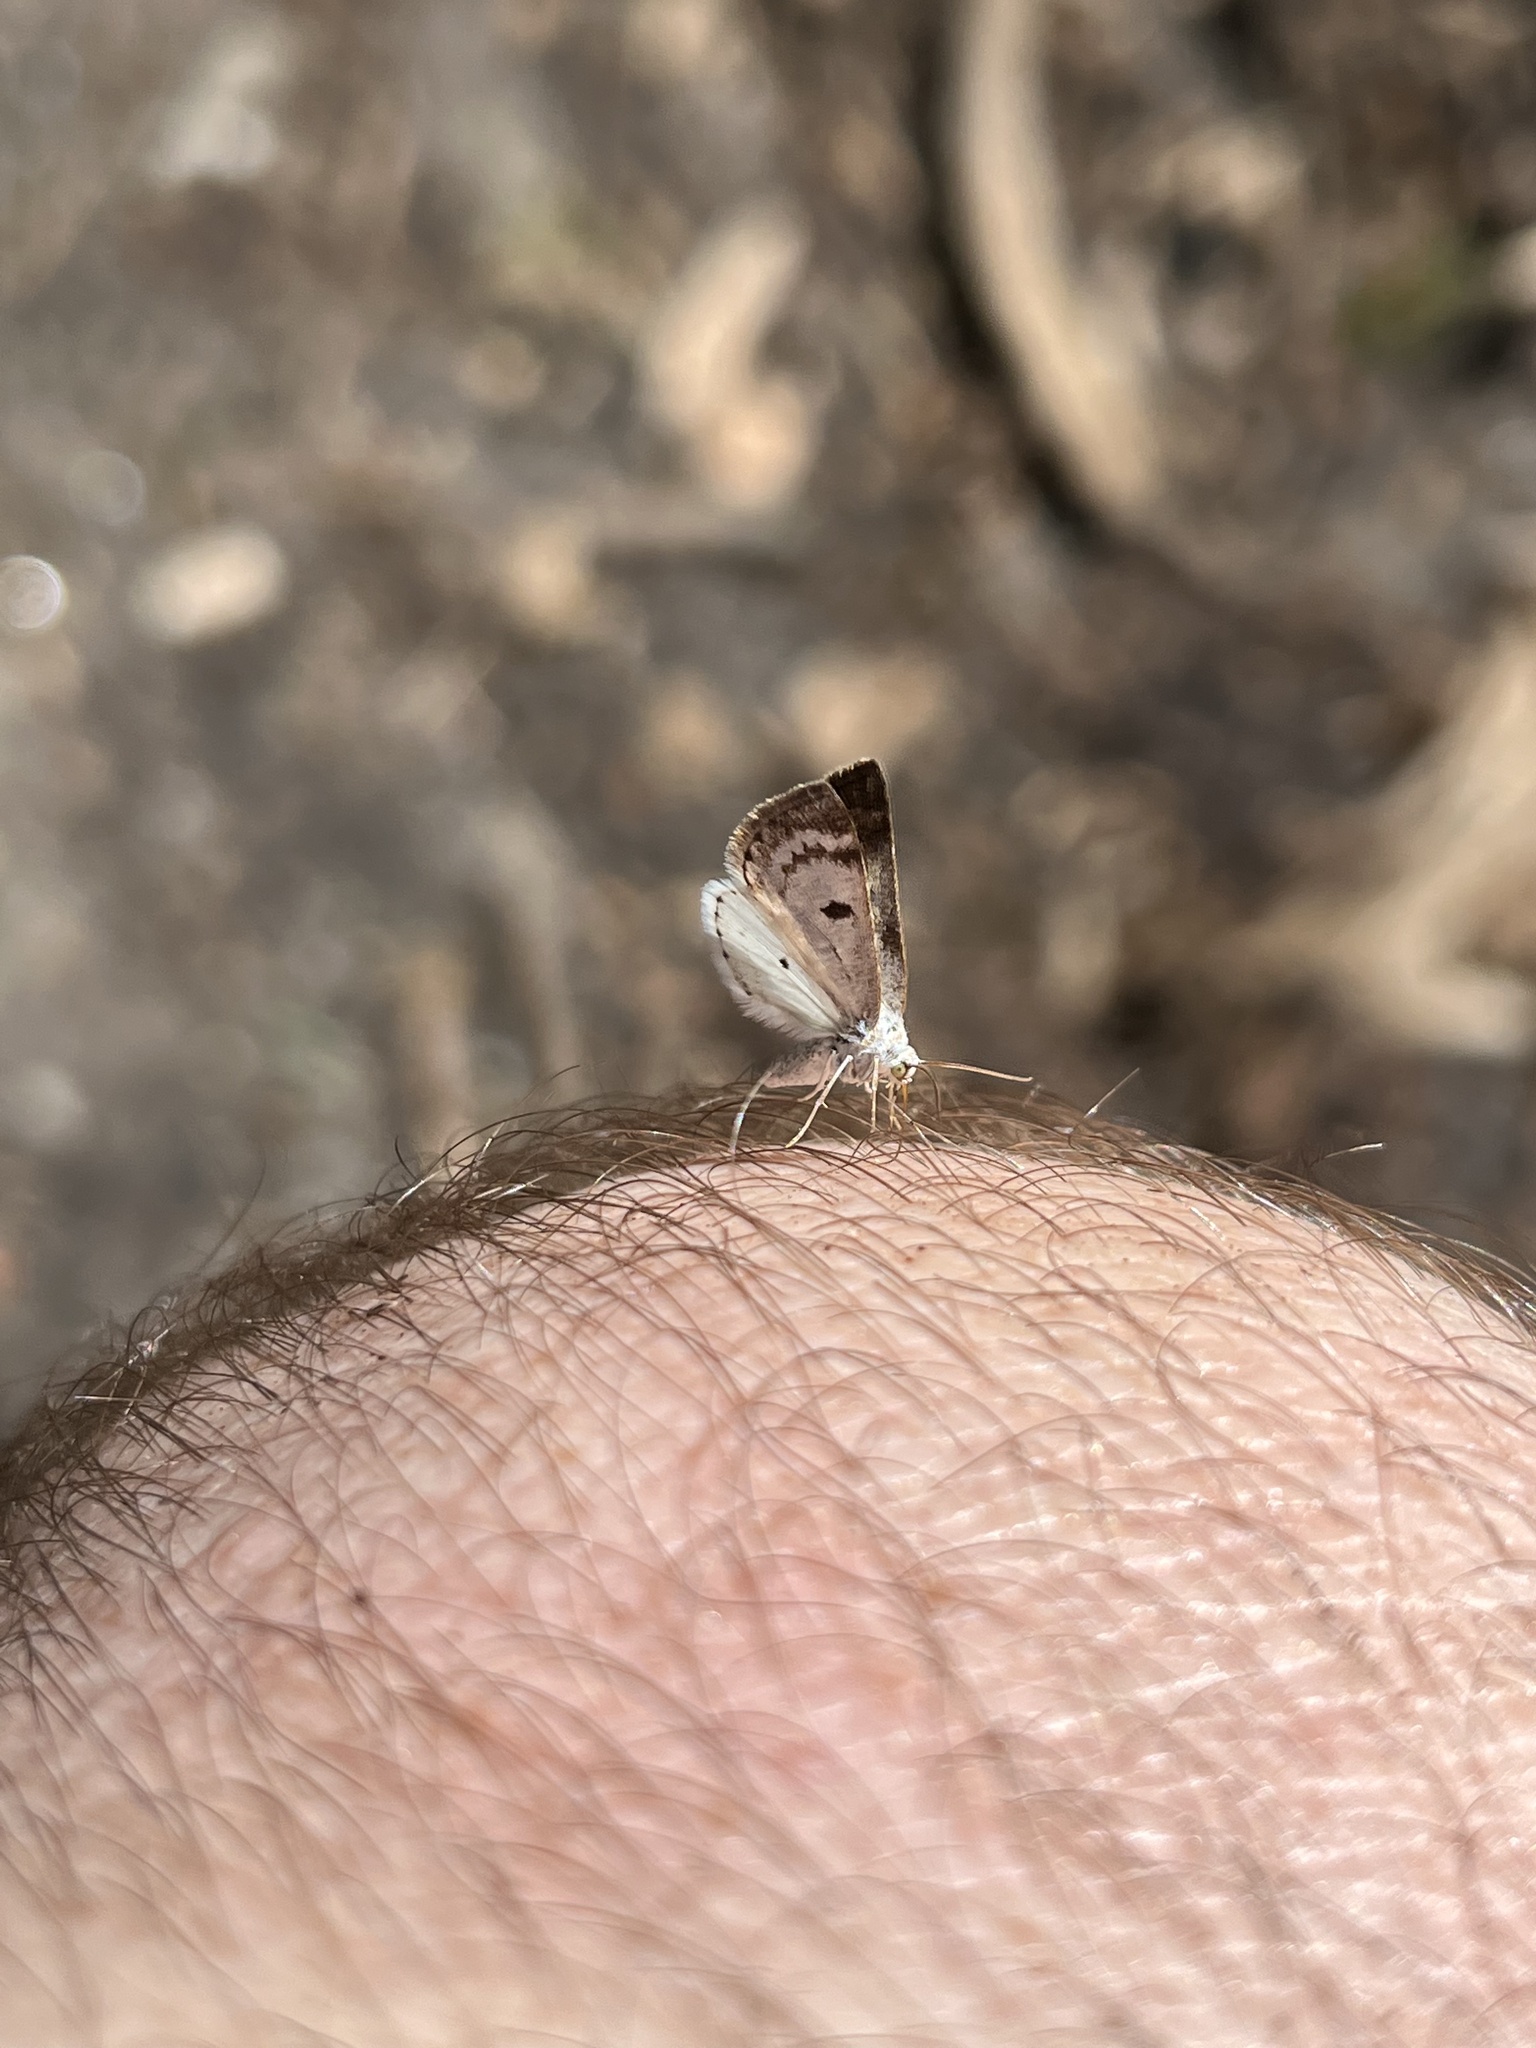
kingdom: Animalia
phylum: Arthropoda
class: Insecta
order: Lepidoptera
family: Geometridae
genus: Lomographa
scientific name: Lomographa semiclarata
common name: Bluish spring moth
